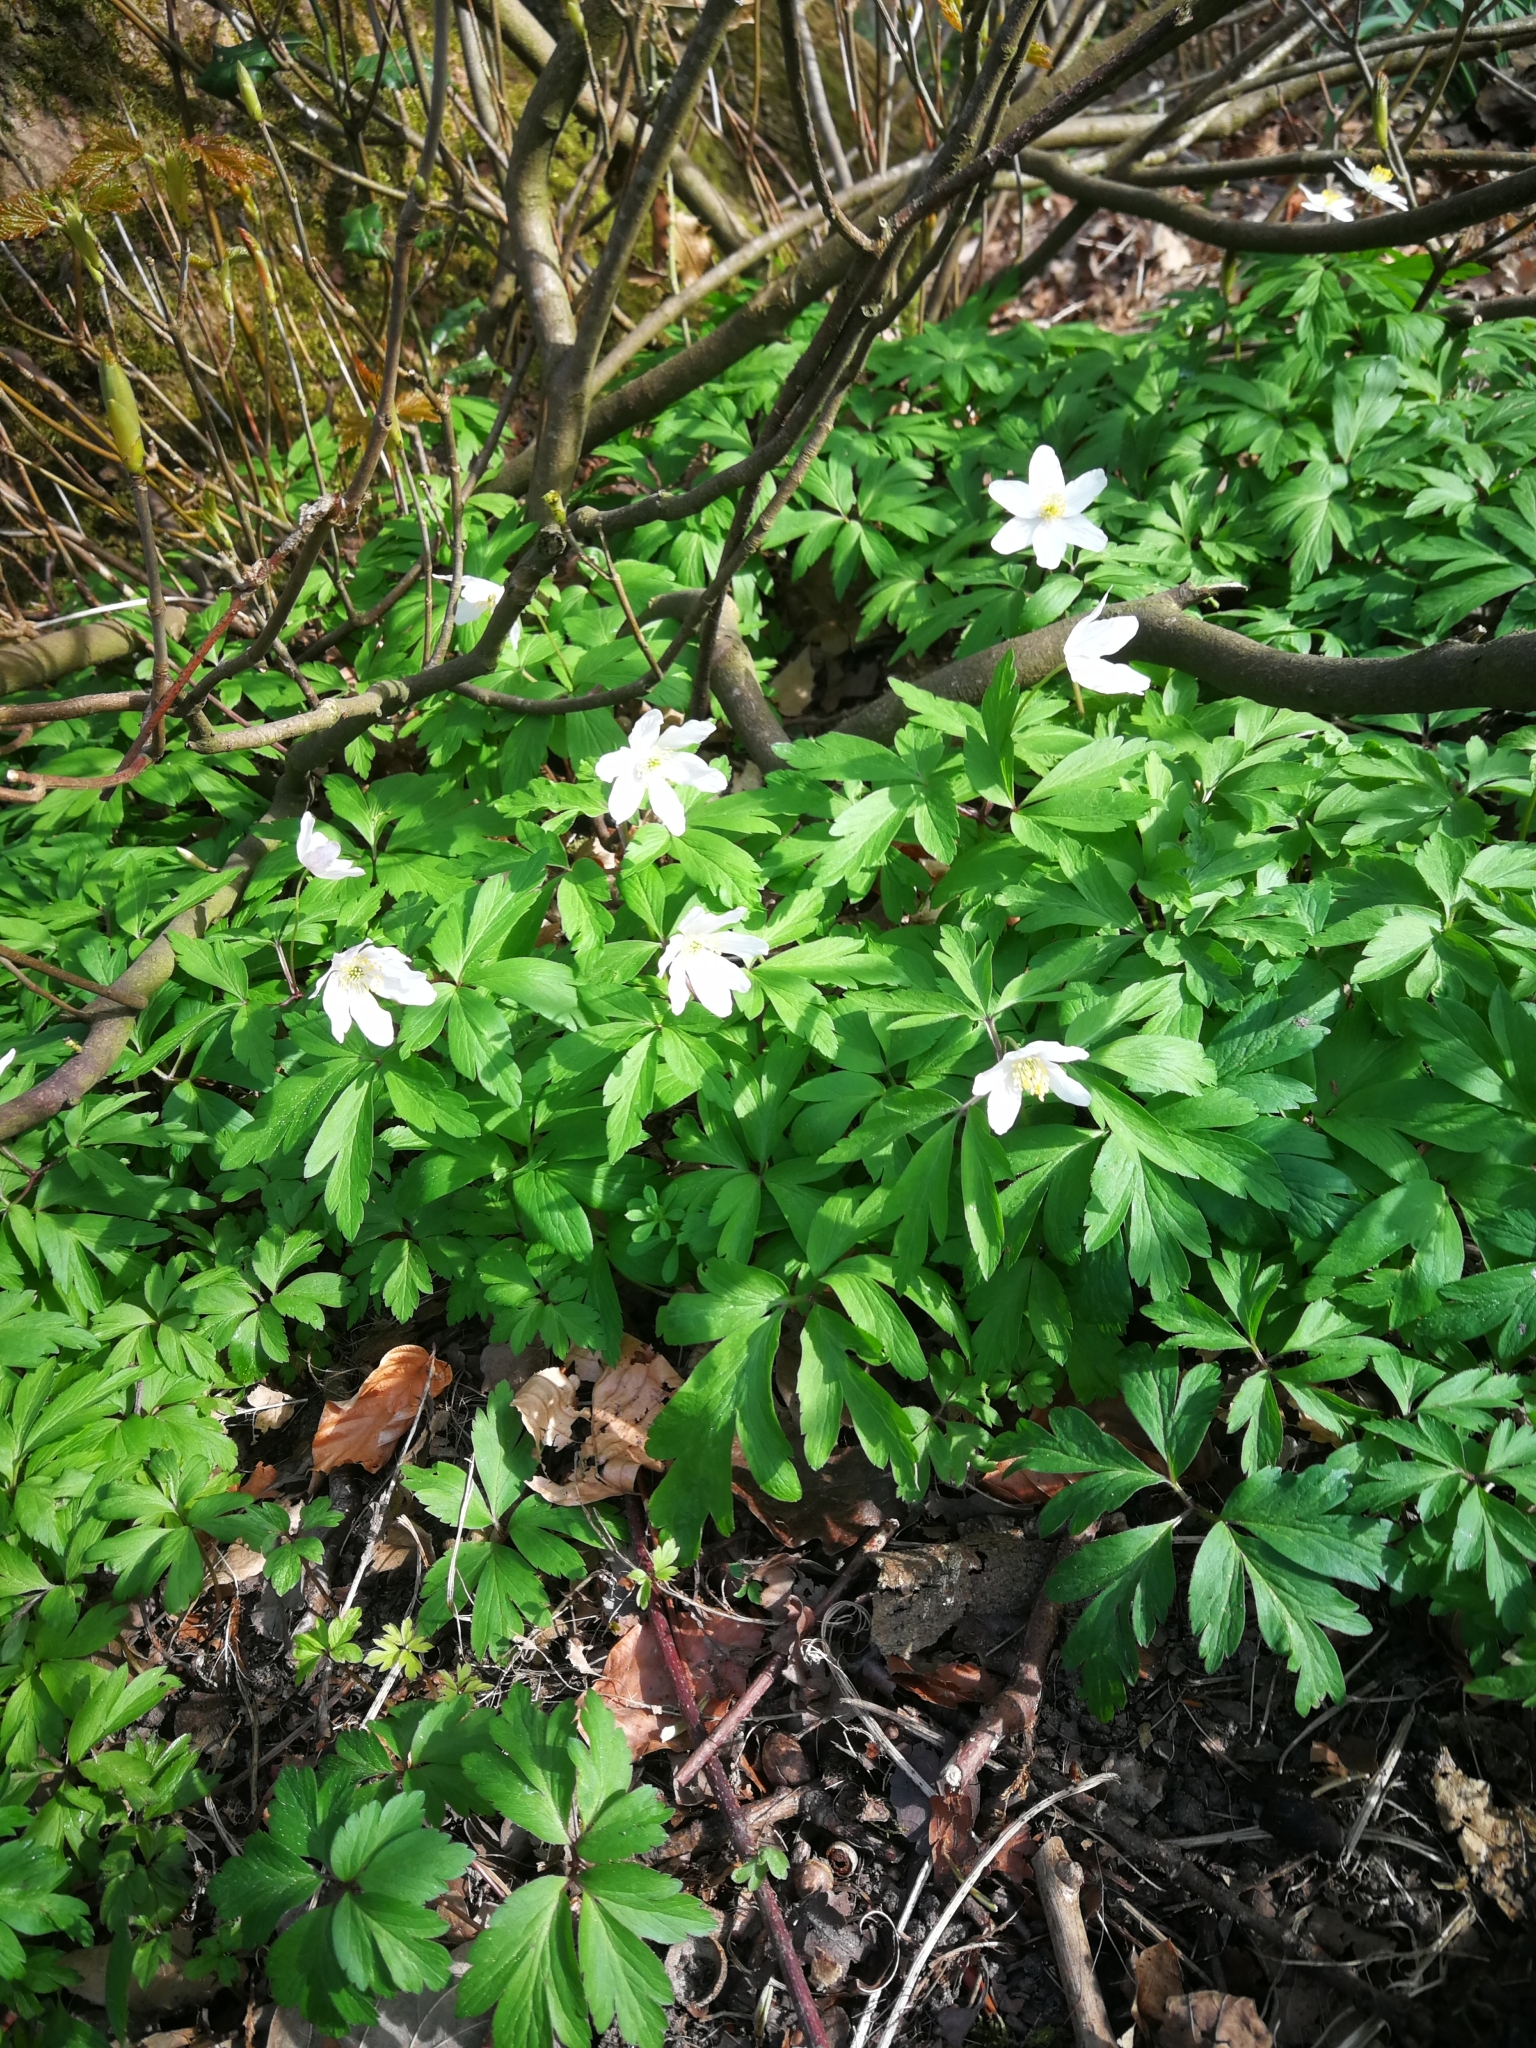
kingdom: Plantae
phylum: Tracheophyta
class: Magnoliopsida
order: Ranunculales
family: Ranunculaceae
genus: Anemone
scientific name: Anemone nemorosa
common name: Wood anemone
